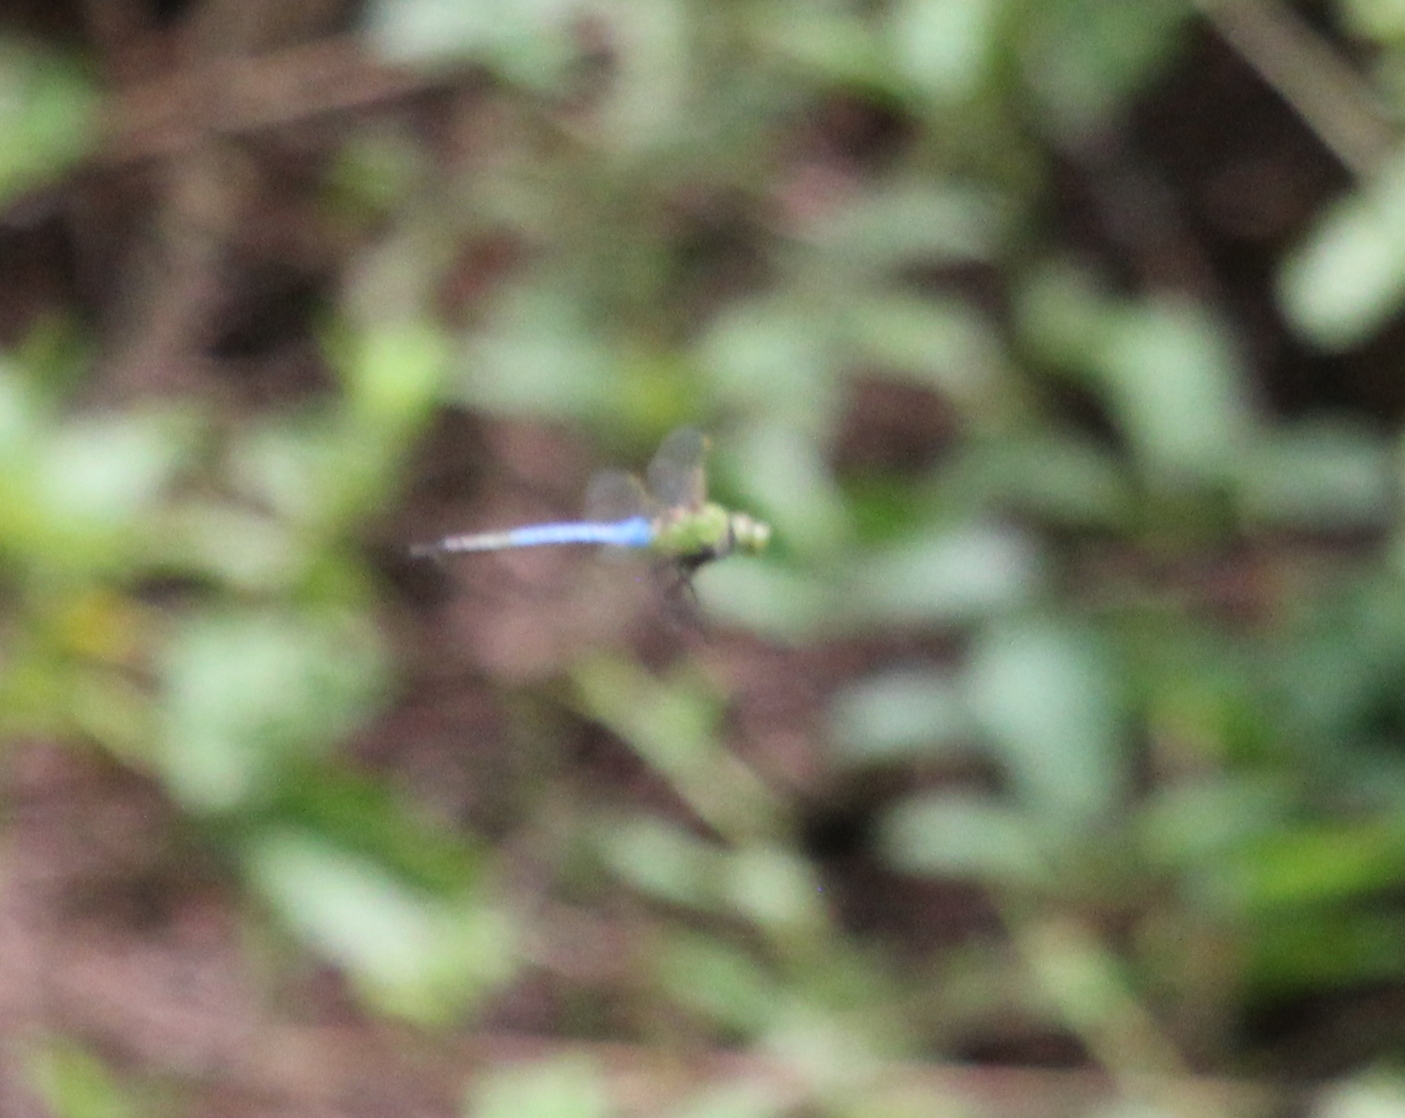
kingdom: Animalia
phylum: Arthropoda
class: Insecta
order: Odonata
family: Aeshnidae
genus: Anax
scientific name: Anax junius
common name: Common green darner
